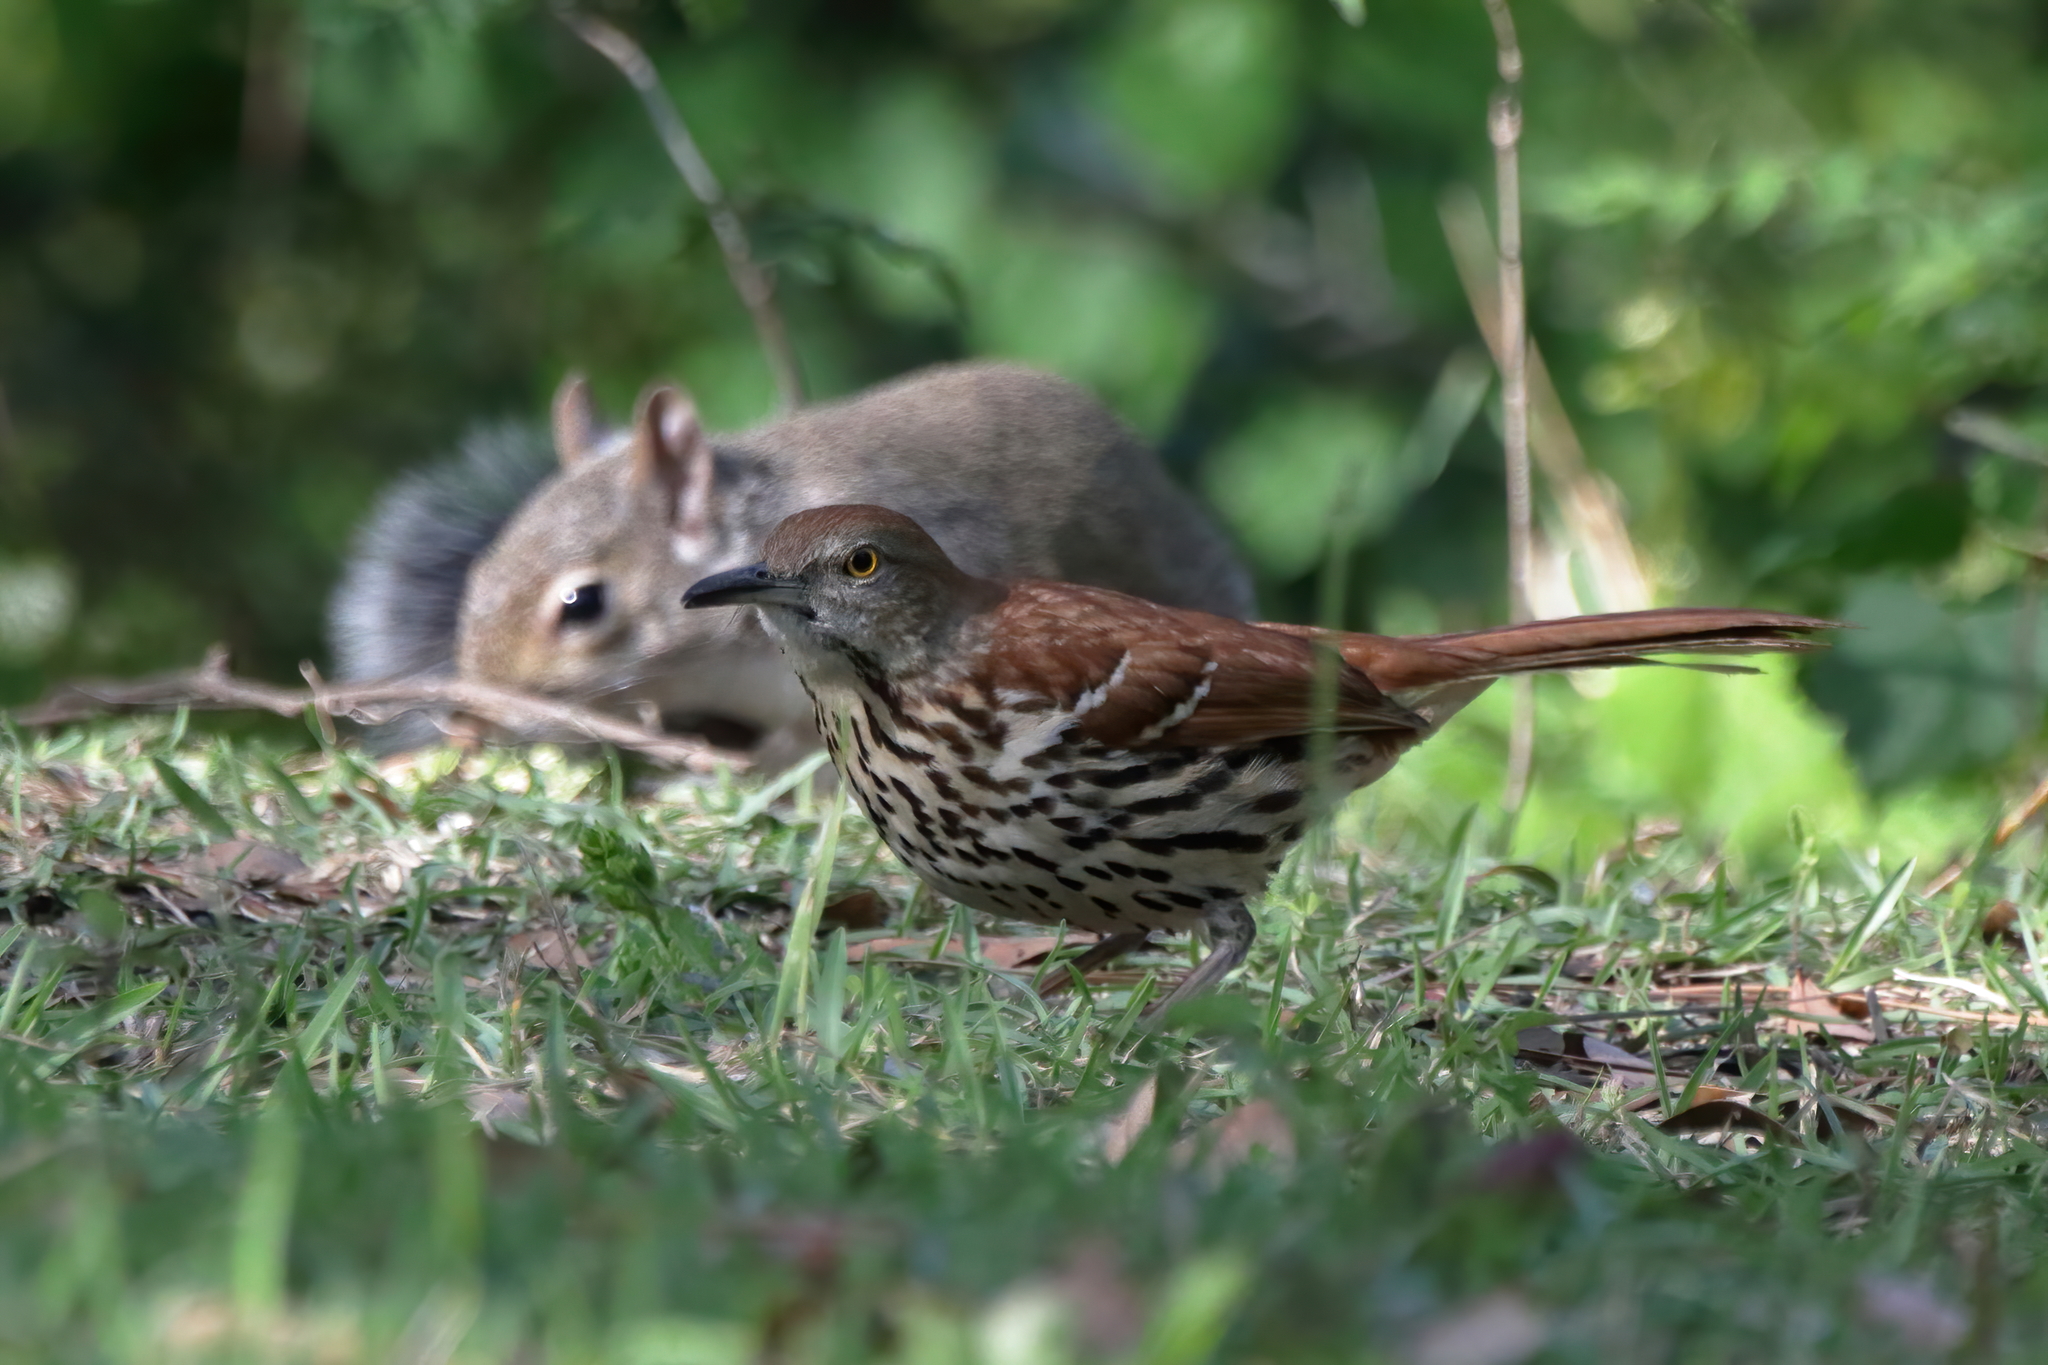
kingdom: Animalia
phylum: Chordata
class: Aves
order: Passeriformes
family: Mimidae
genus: Toxostoma
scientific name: Toxostoma rufum
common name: Brown thrasher
